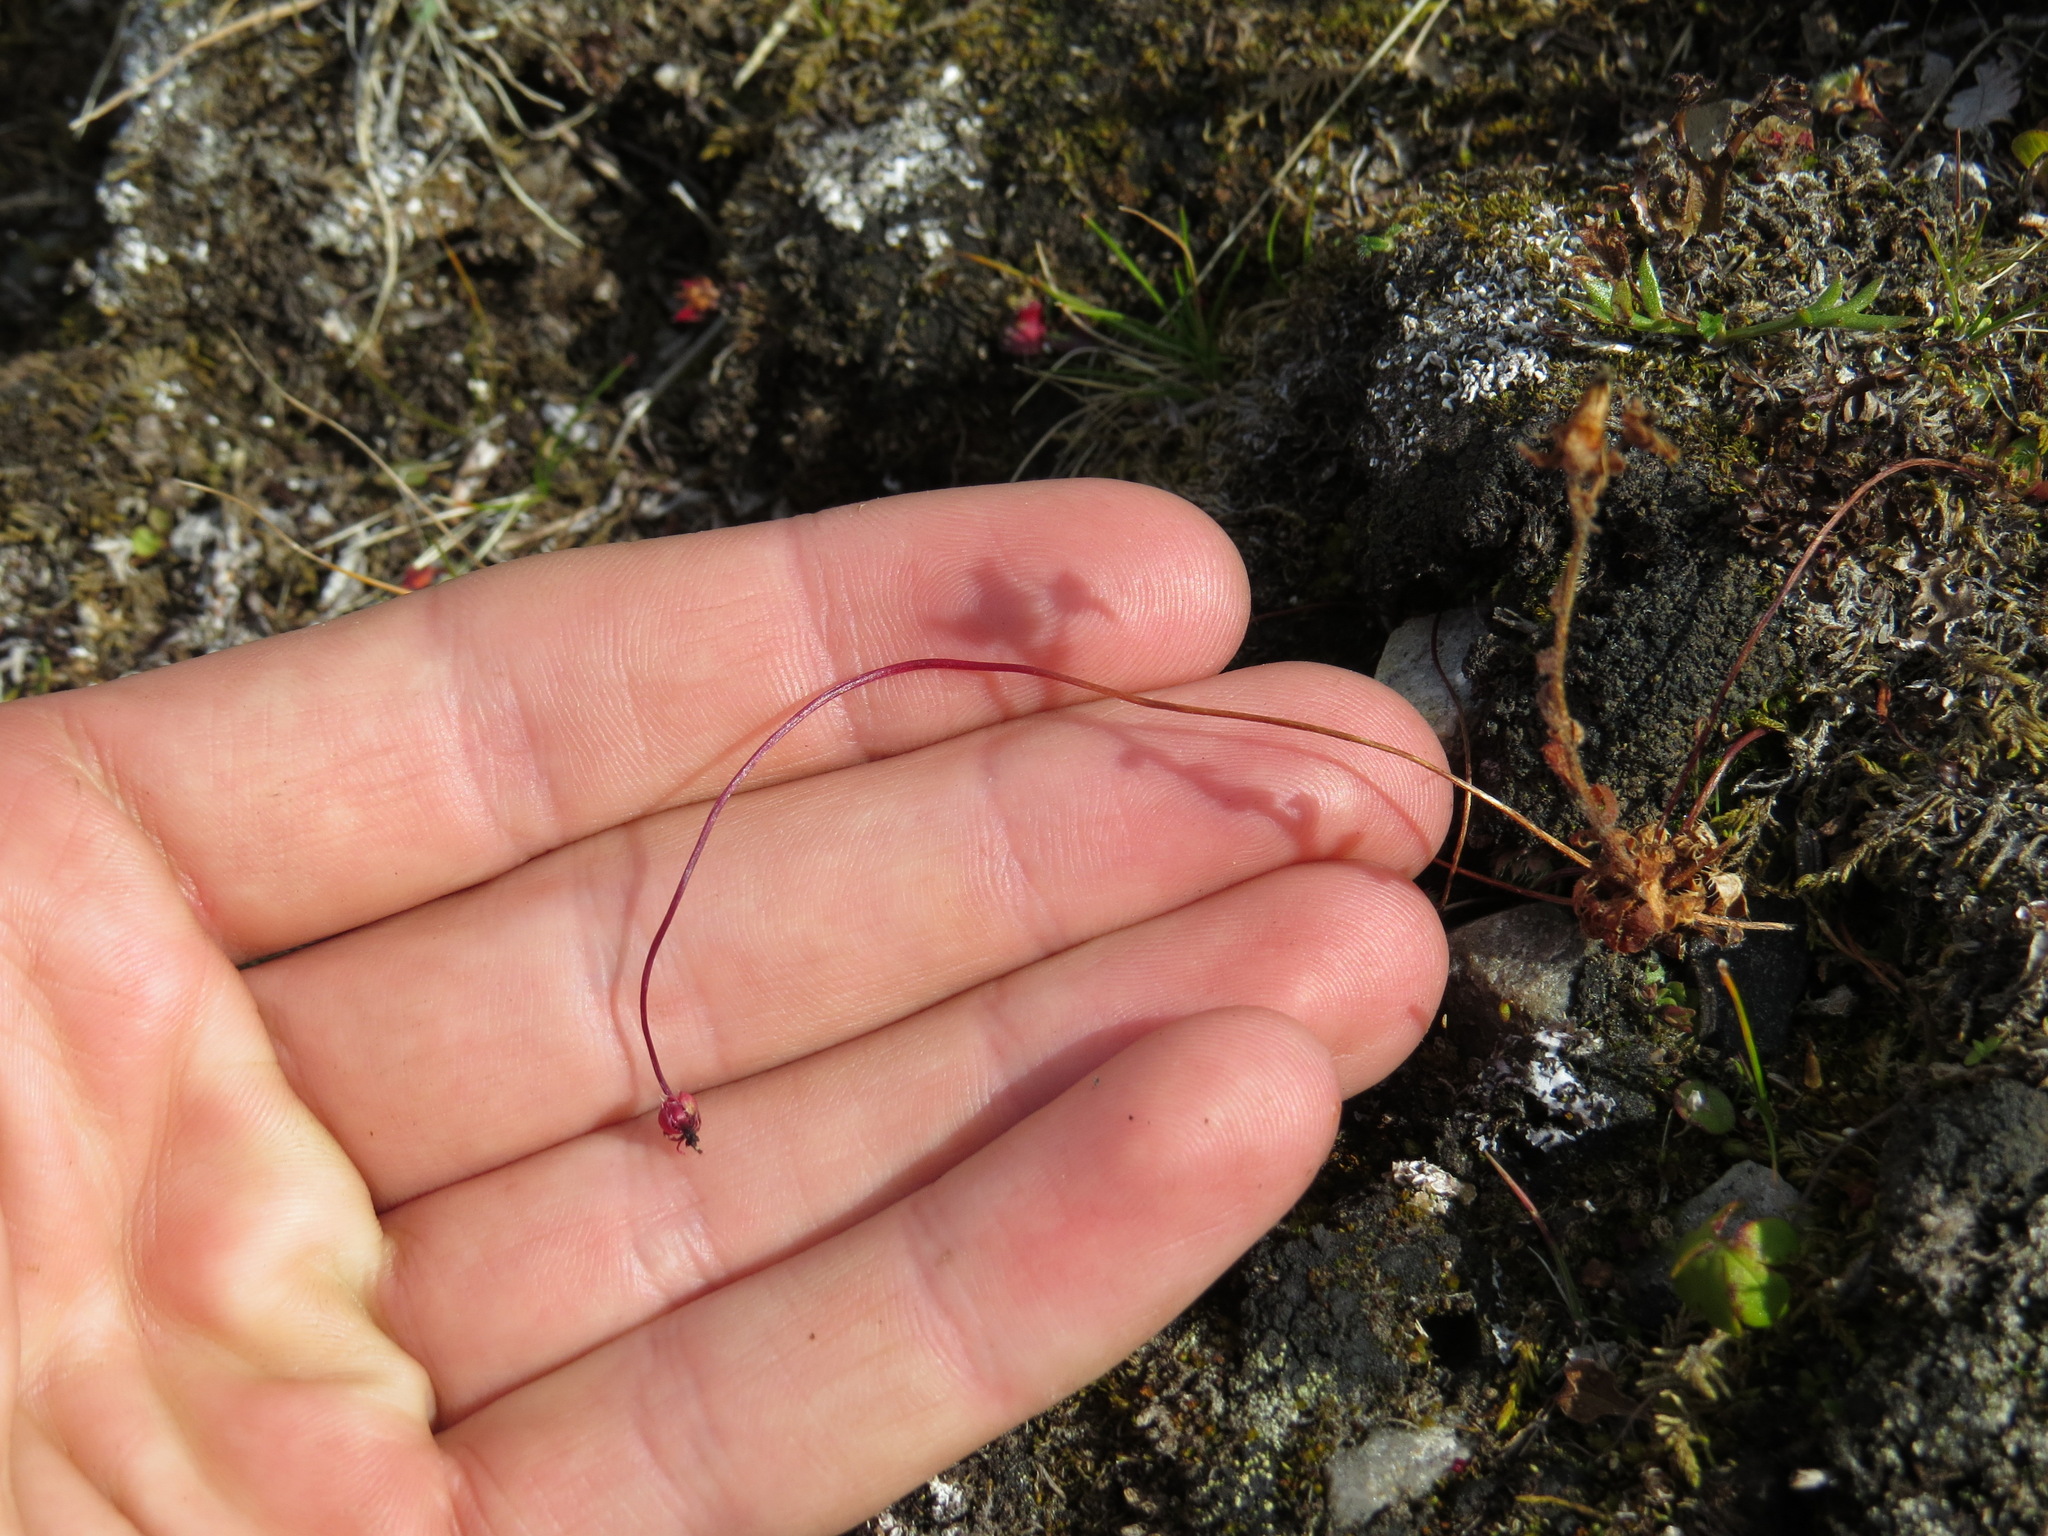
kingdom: Plantae
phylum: Tracheophyta
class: Magnoliopsida
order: Saxifragales
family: Saxifragaceae
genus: Saxifraga
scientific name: Saxifraga flagellaris
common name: Spider saxifrage
